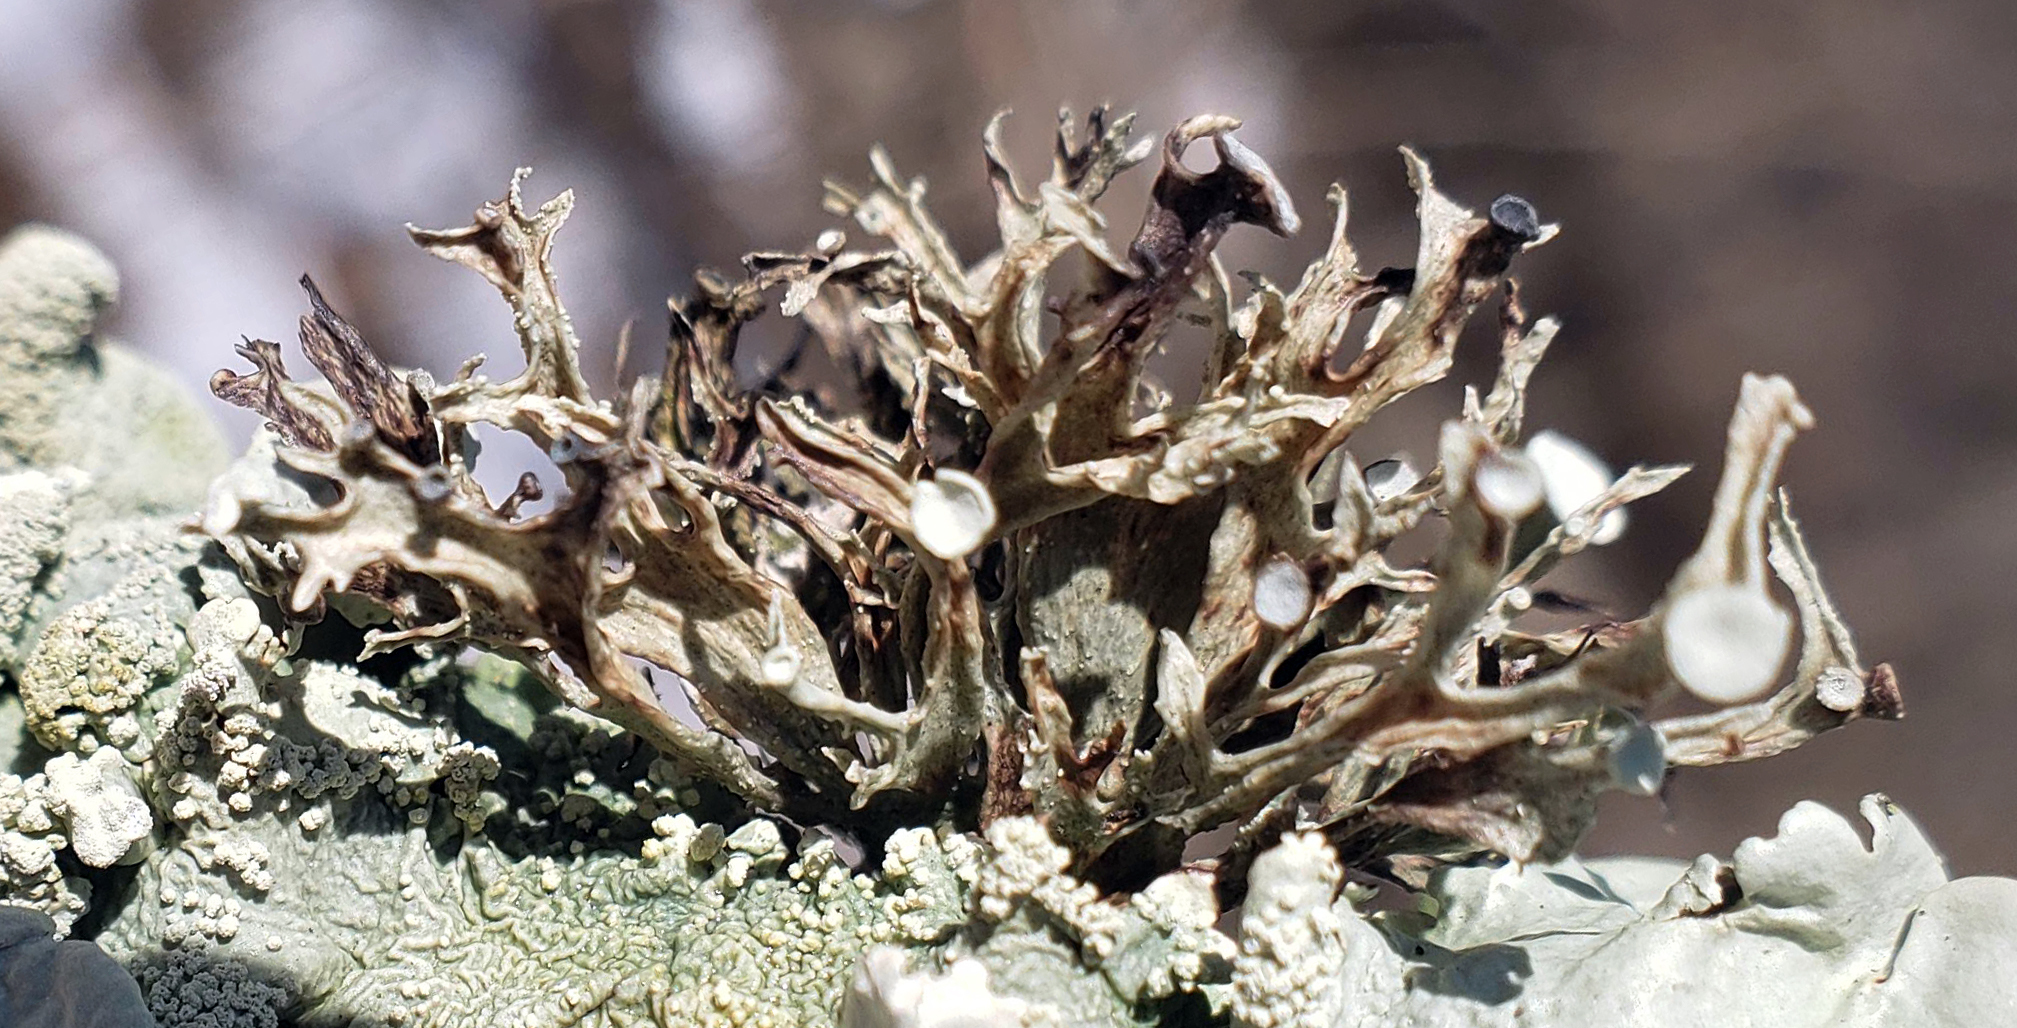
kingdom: Fungi
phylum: Ascomycota
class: Lecanoromycetes
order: Lecanorales
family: Ramalinaceae
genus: Ramalina
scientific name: Ramalina americana
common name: Sinewed bush lichen
